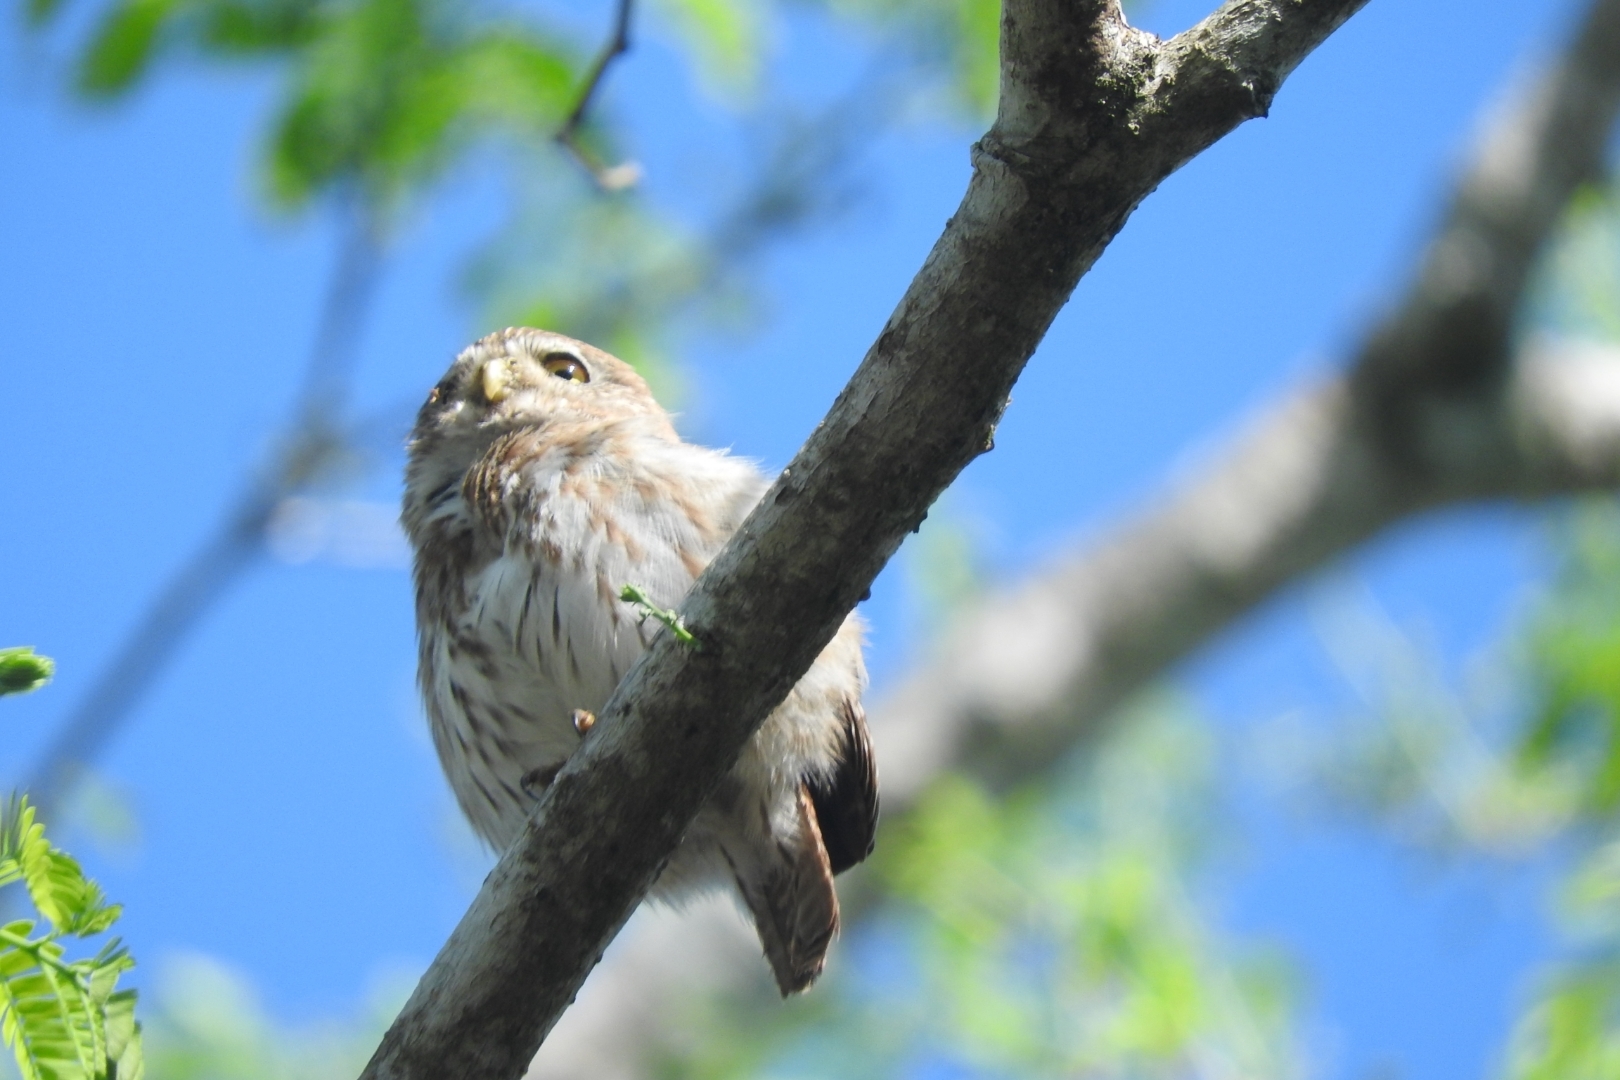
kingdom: Animalia
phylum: Chordata
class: Aves
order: Strigiformes
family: Strigidae
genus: Glaucidium
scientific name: Glaucidium brasilianum
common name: Ferruginous pygmy-owl
